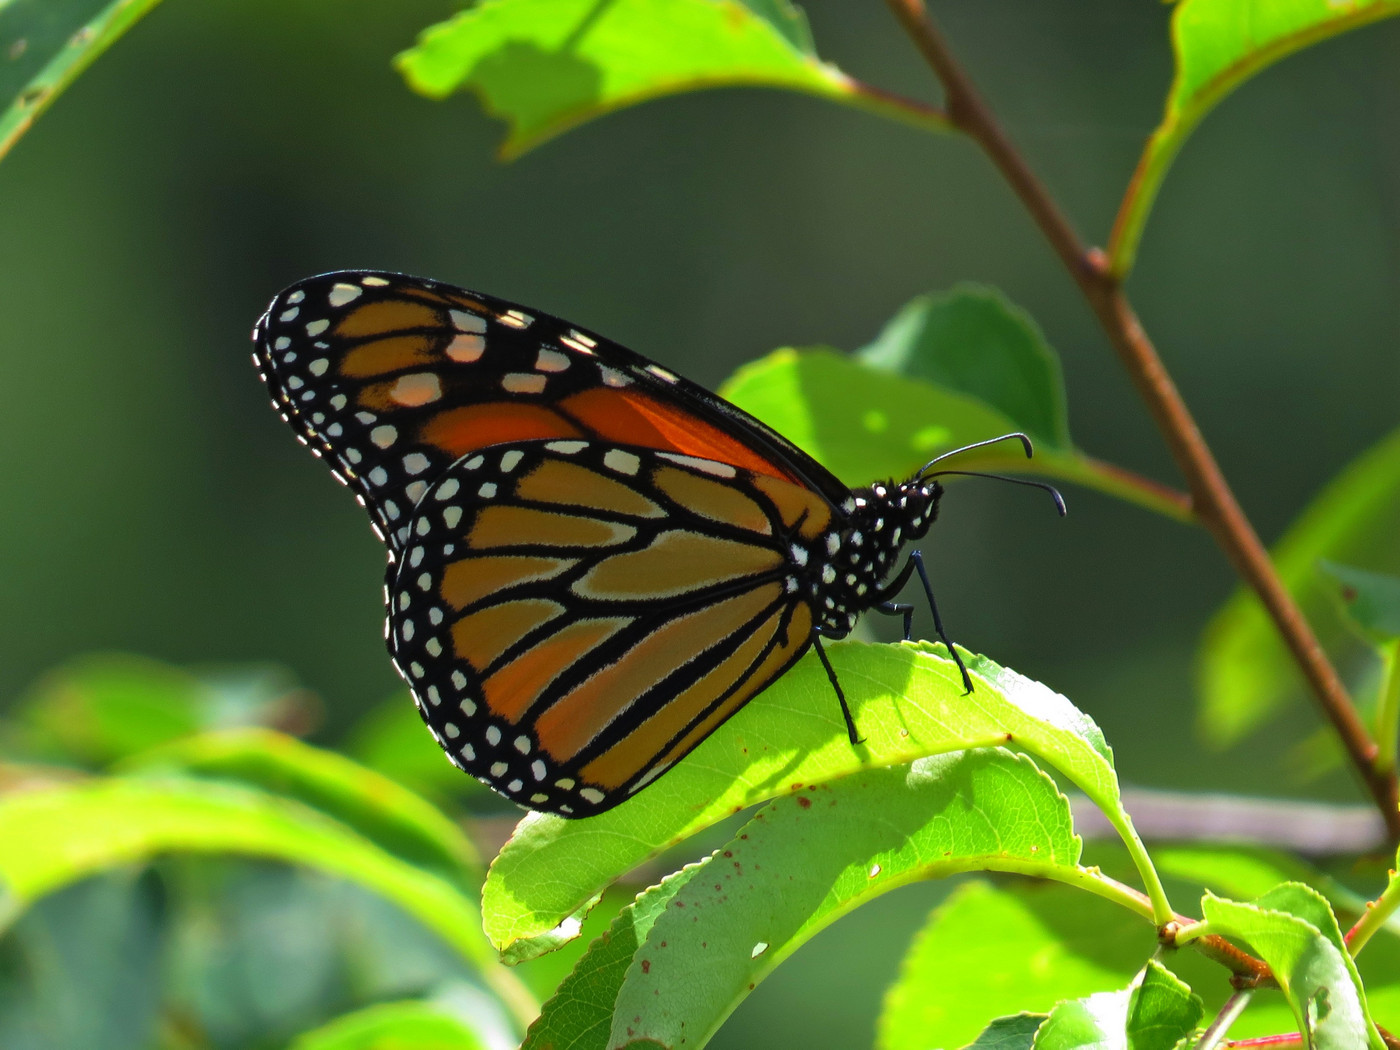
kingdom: Animalia
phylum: Arthropoda
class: Insecta
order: Lepidoptera
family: Nymphalidae
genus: Danaus
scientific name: Danaus plexippus
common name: Monarch
